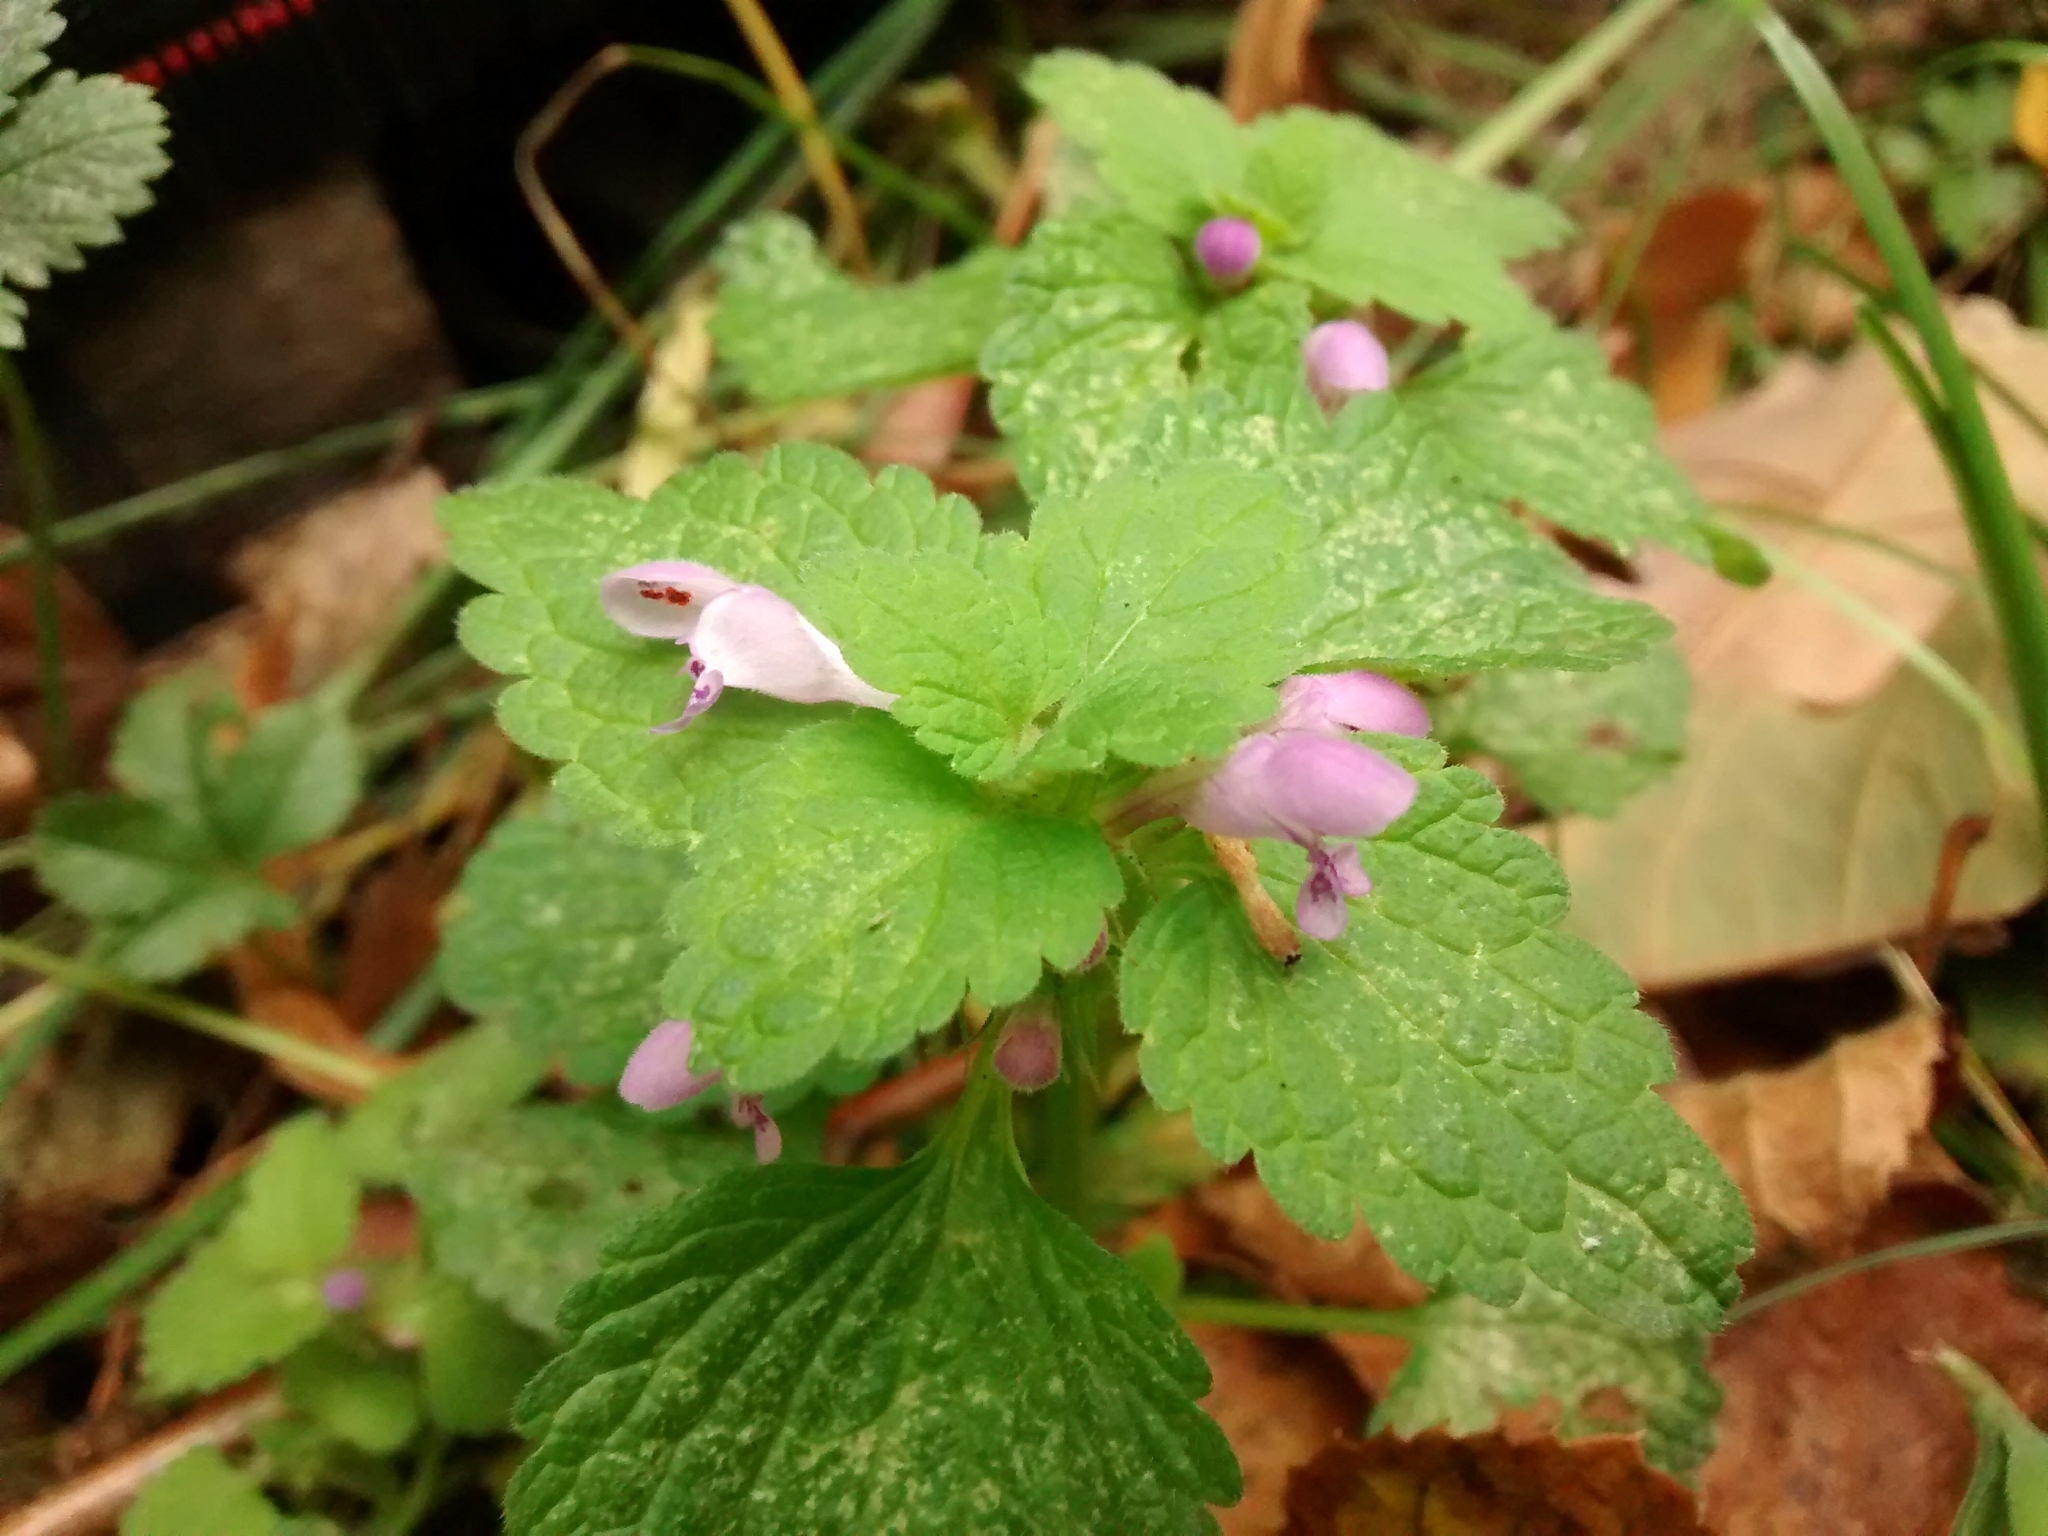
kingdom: Plantae
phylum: Tracheophyta
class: Magnoliopsida
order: Lamiales
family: Lamiaceae
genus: Lamium
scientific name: Lamium purpureum
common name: Red dead-nettle
